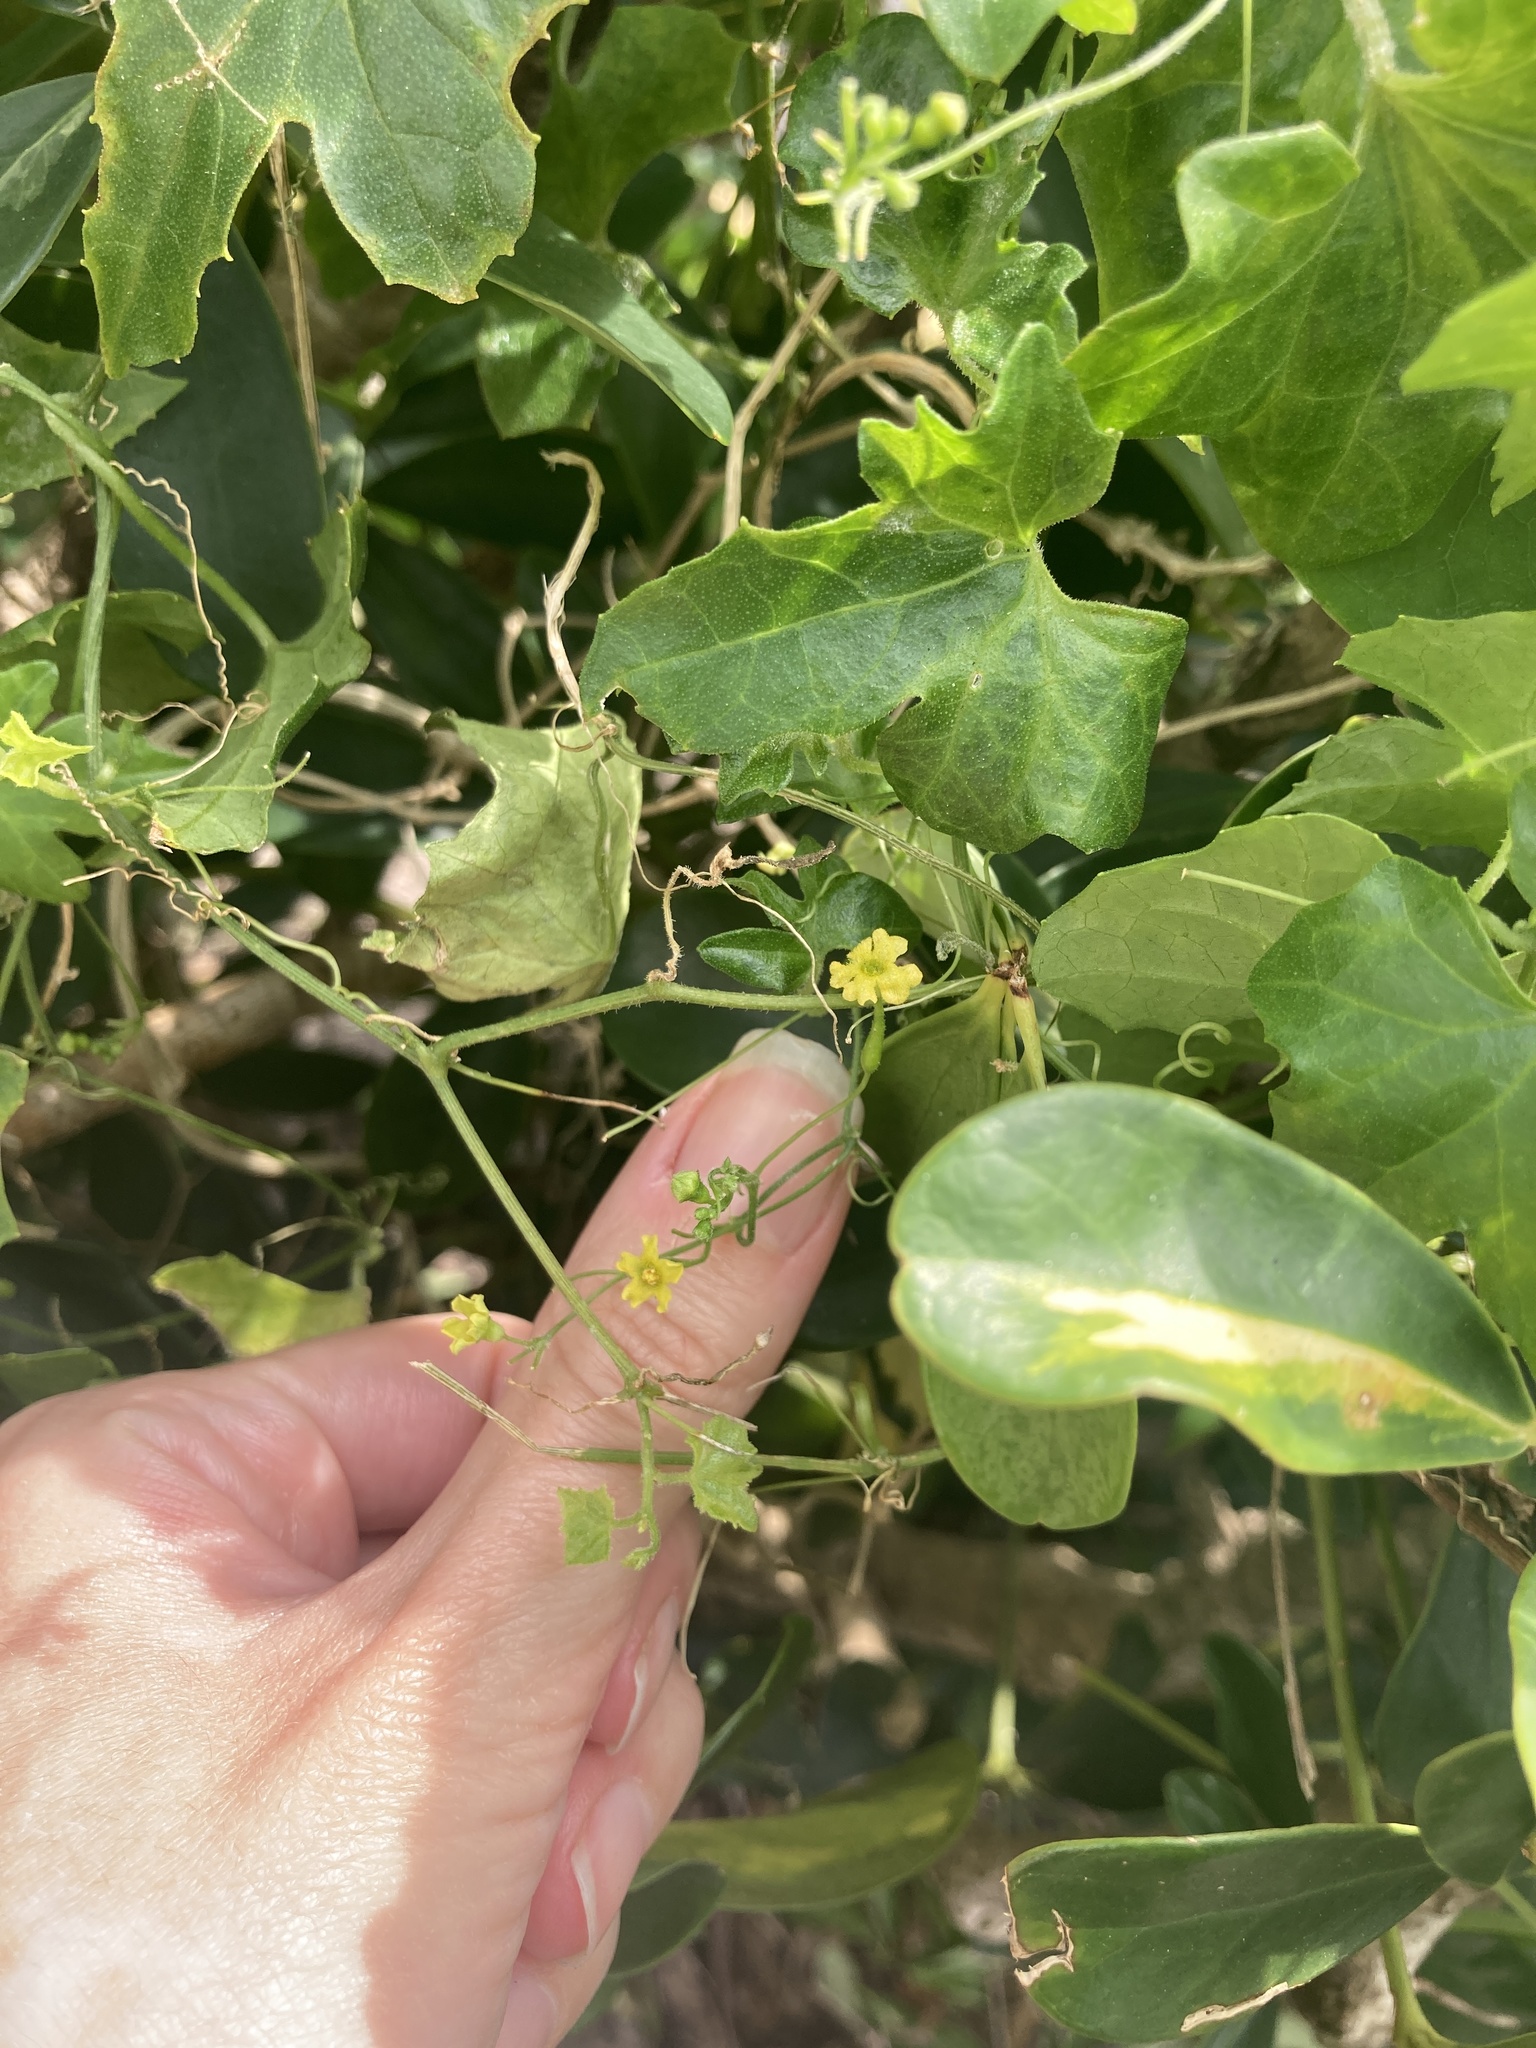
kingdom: Plantae
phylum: Tracheophyta
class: Magnoliopsida
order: Cucurbitales
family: Cucurbitaceae
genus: Melothria
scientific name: Melothria pendula
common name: Creeping-cucumber
